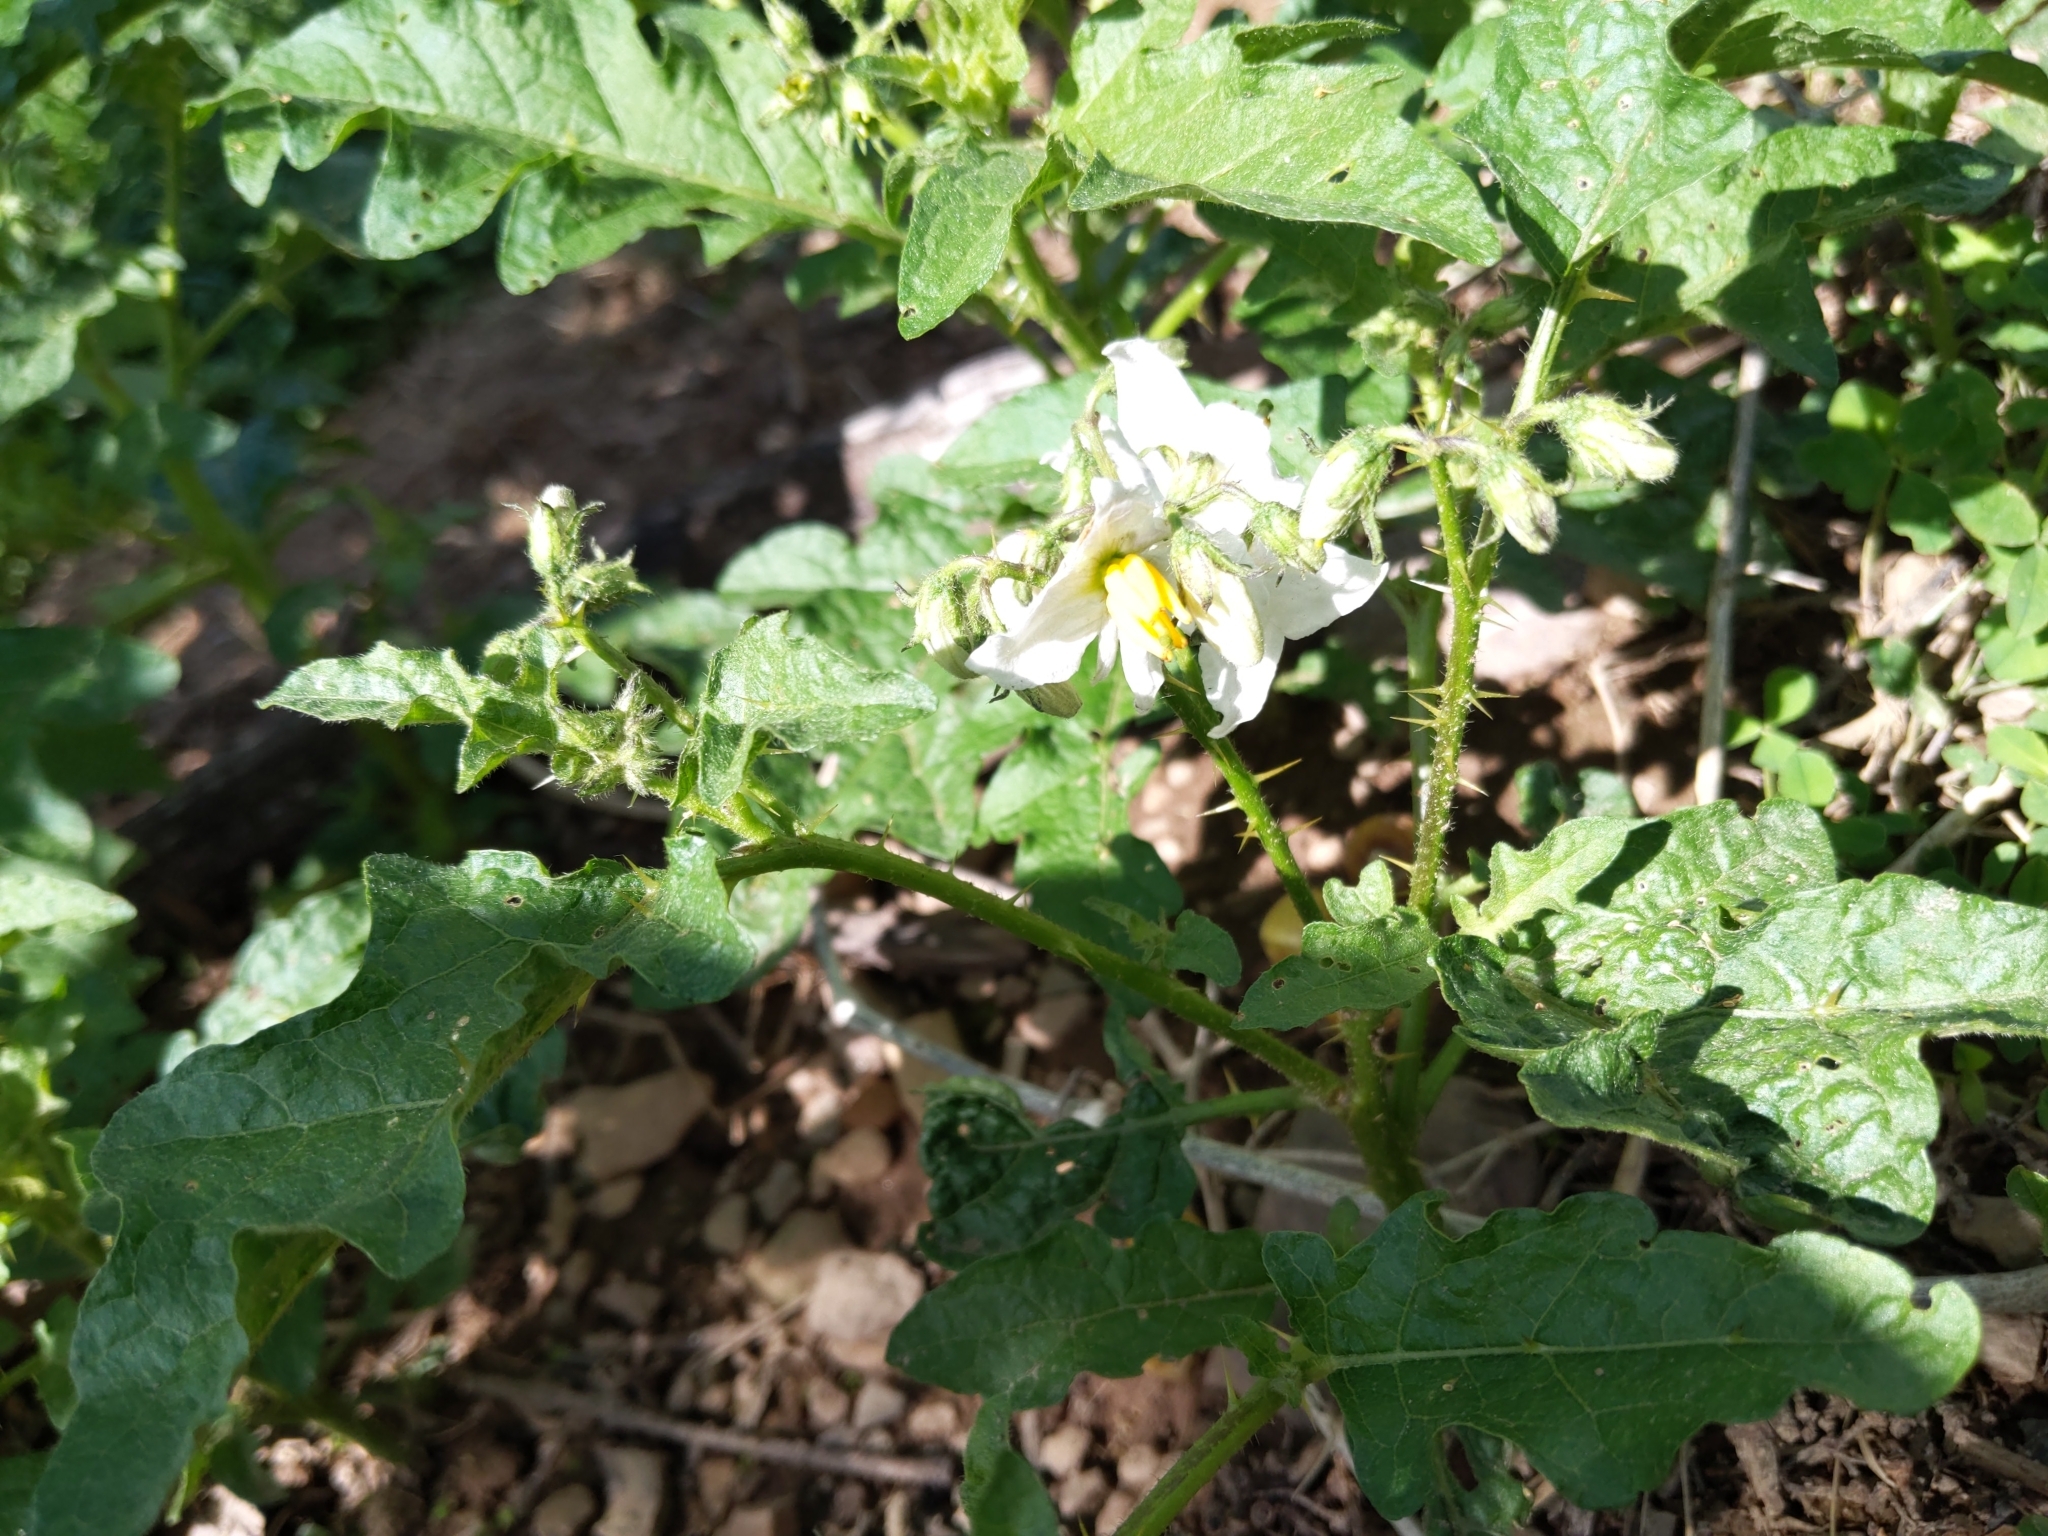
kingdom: Plantae
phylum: Tracheophyta
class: Magnoliopsida
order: Solanales
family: Solanaceae
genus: Solanum
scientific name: Solanum carolinense
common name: Horse-nettle
